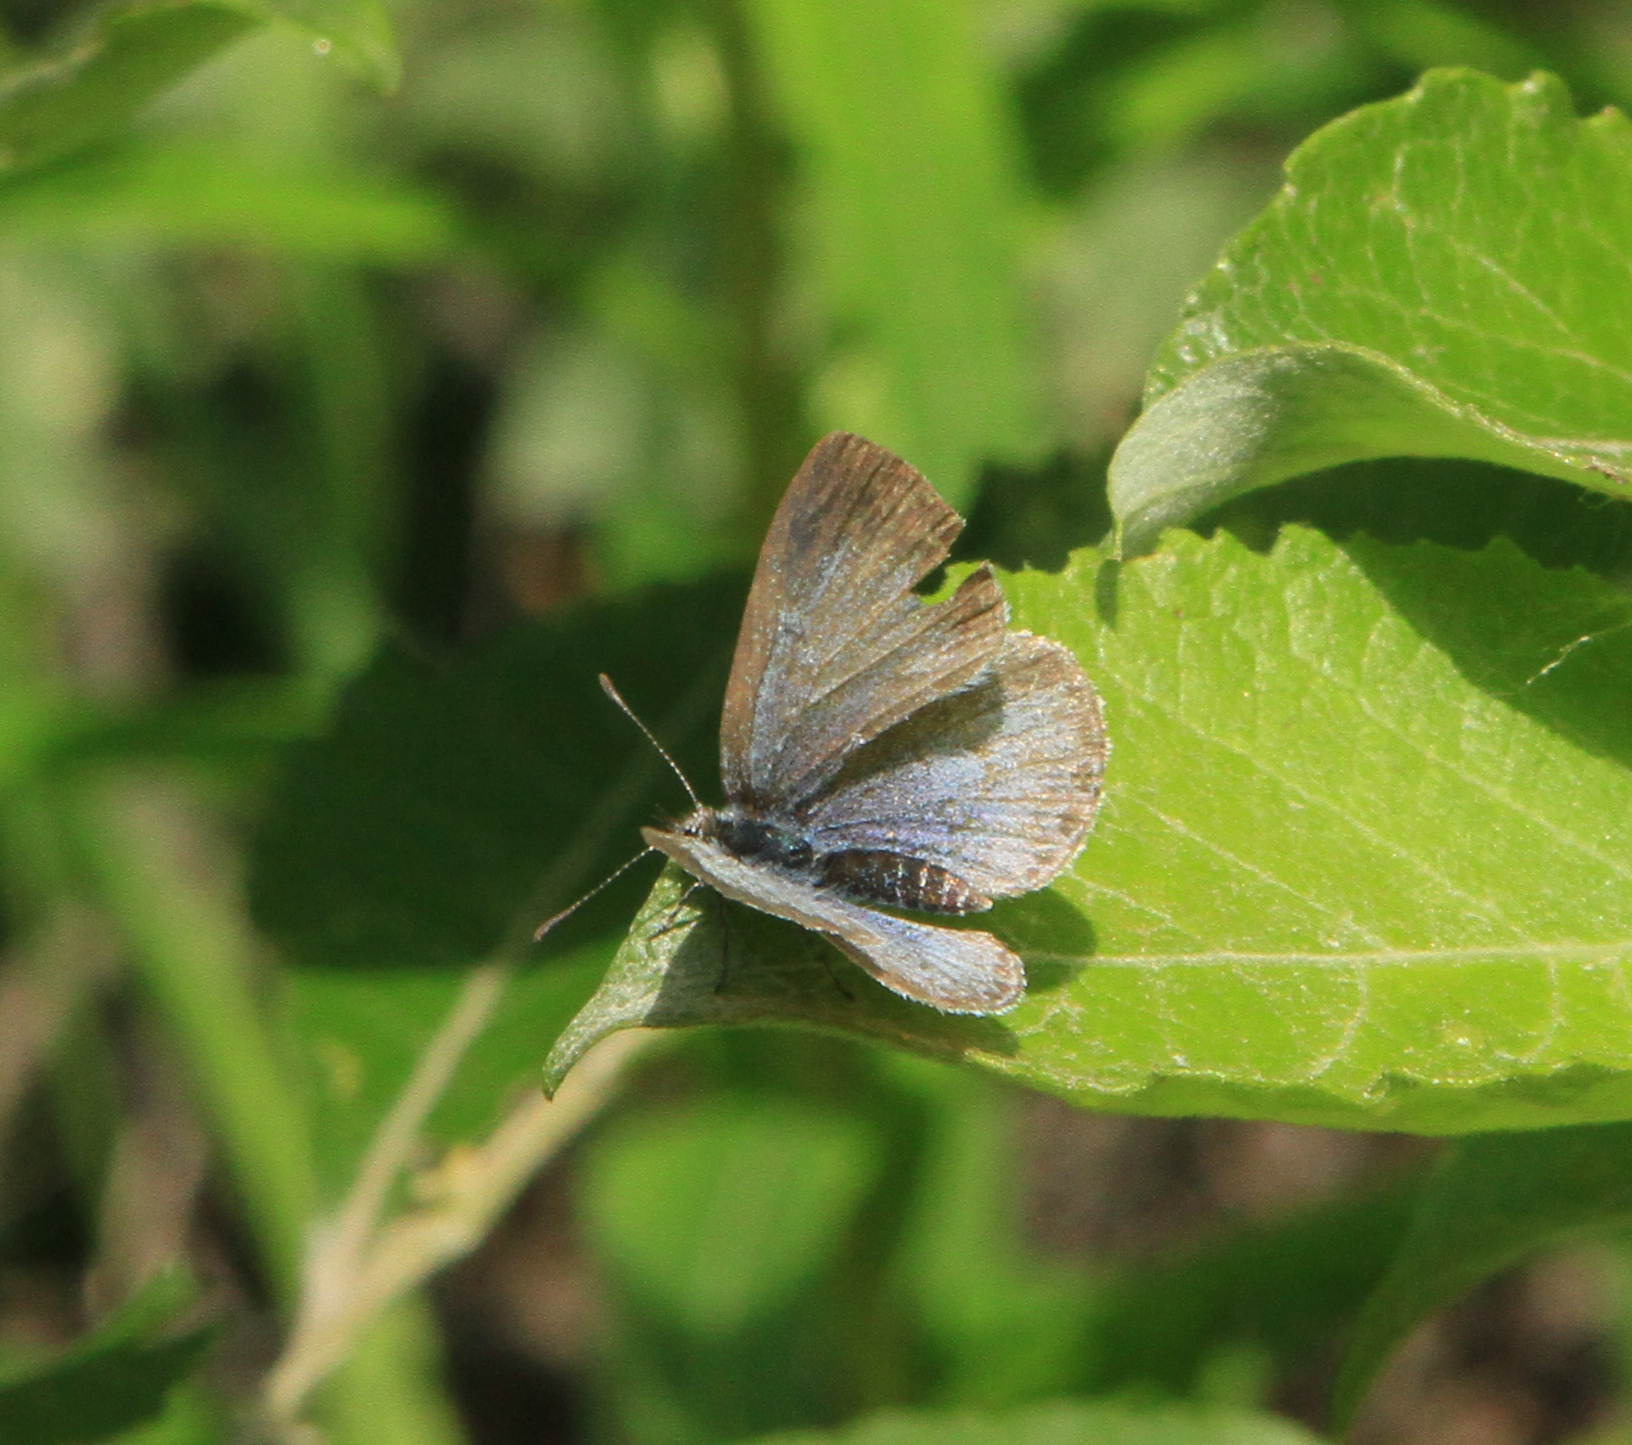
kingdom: Animalia
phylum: Arthropoda
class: Insecta
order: Lepidoptera
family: Lycaenidae
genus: Celastrina
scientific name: Celastrina argiolus
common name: Holly blue
